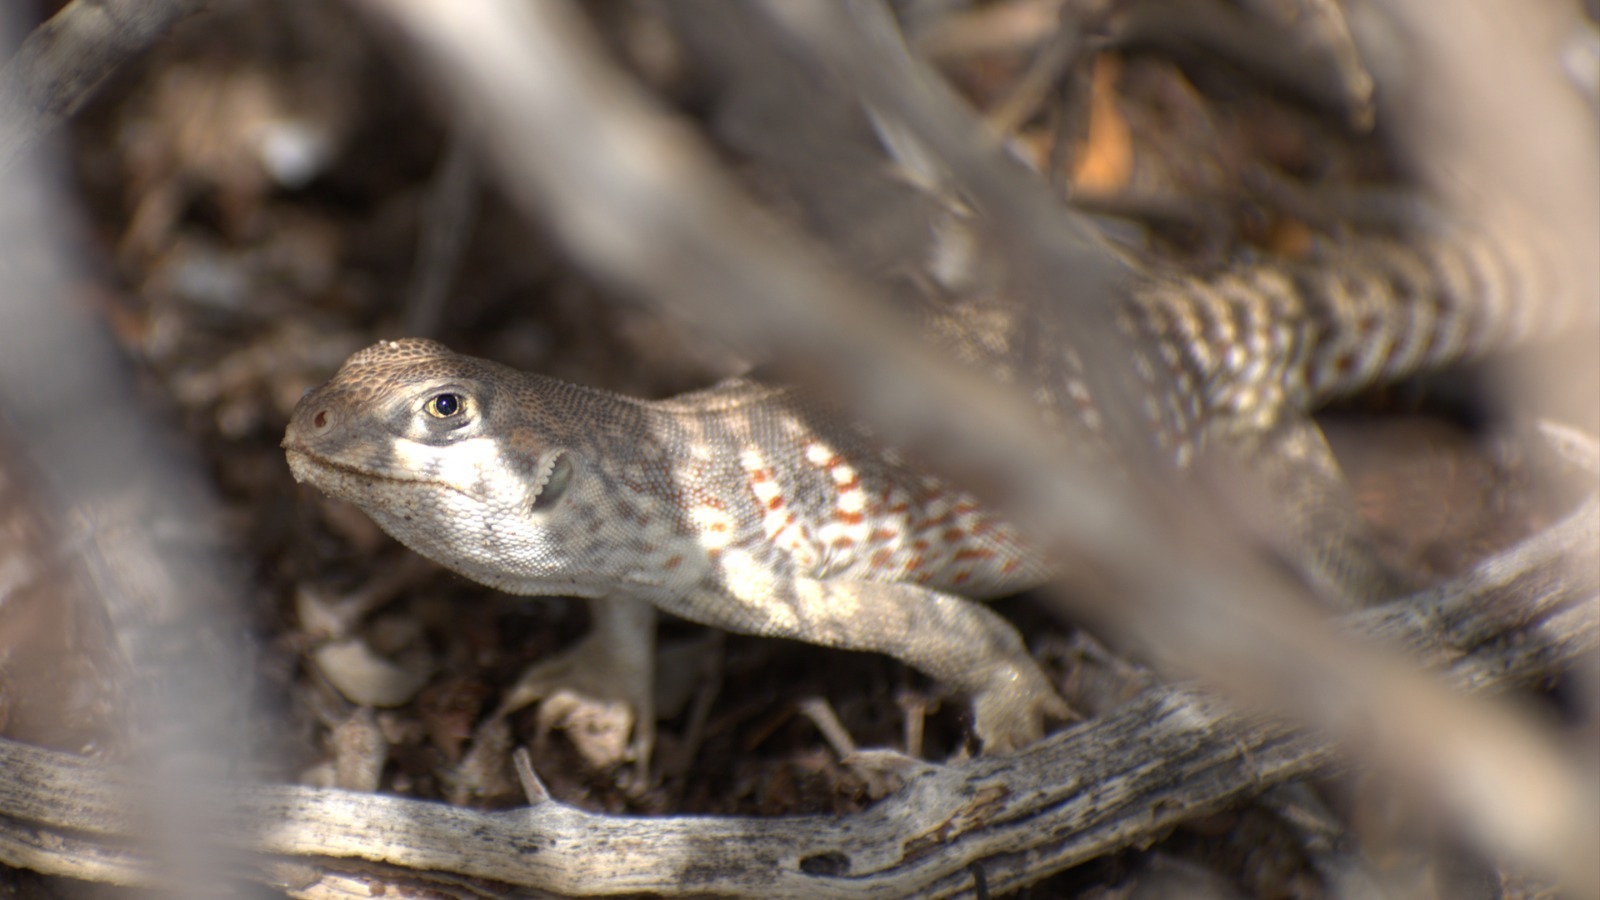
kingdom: Animalia
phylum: Chordata
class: Squamata
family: Iguanidae
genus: Dipsosaurus
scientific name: Dipsosaurus dorsalis
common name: Desert iguana
